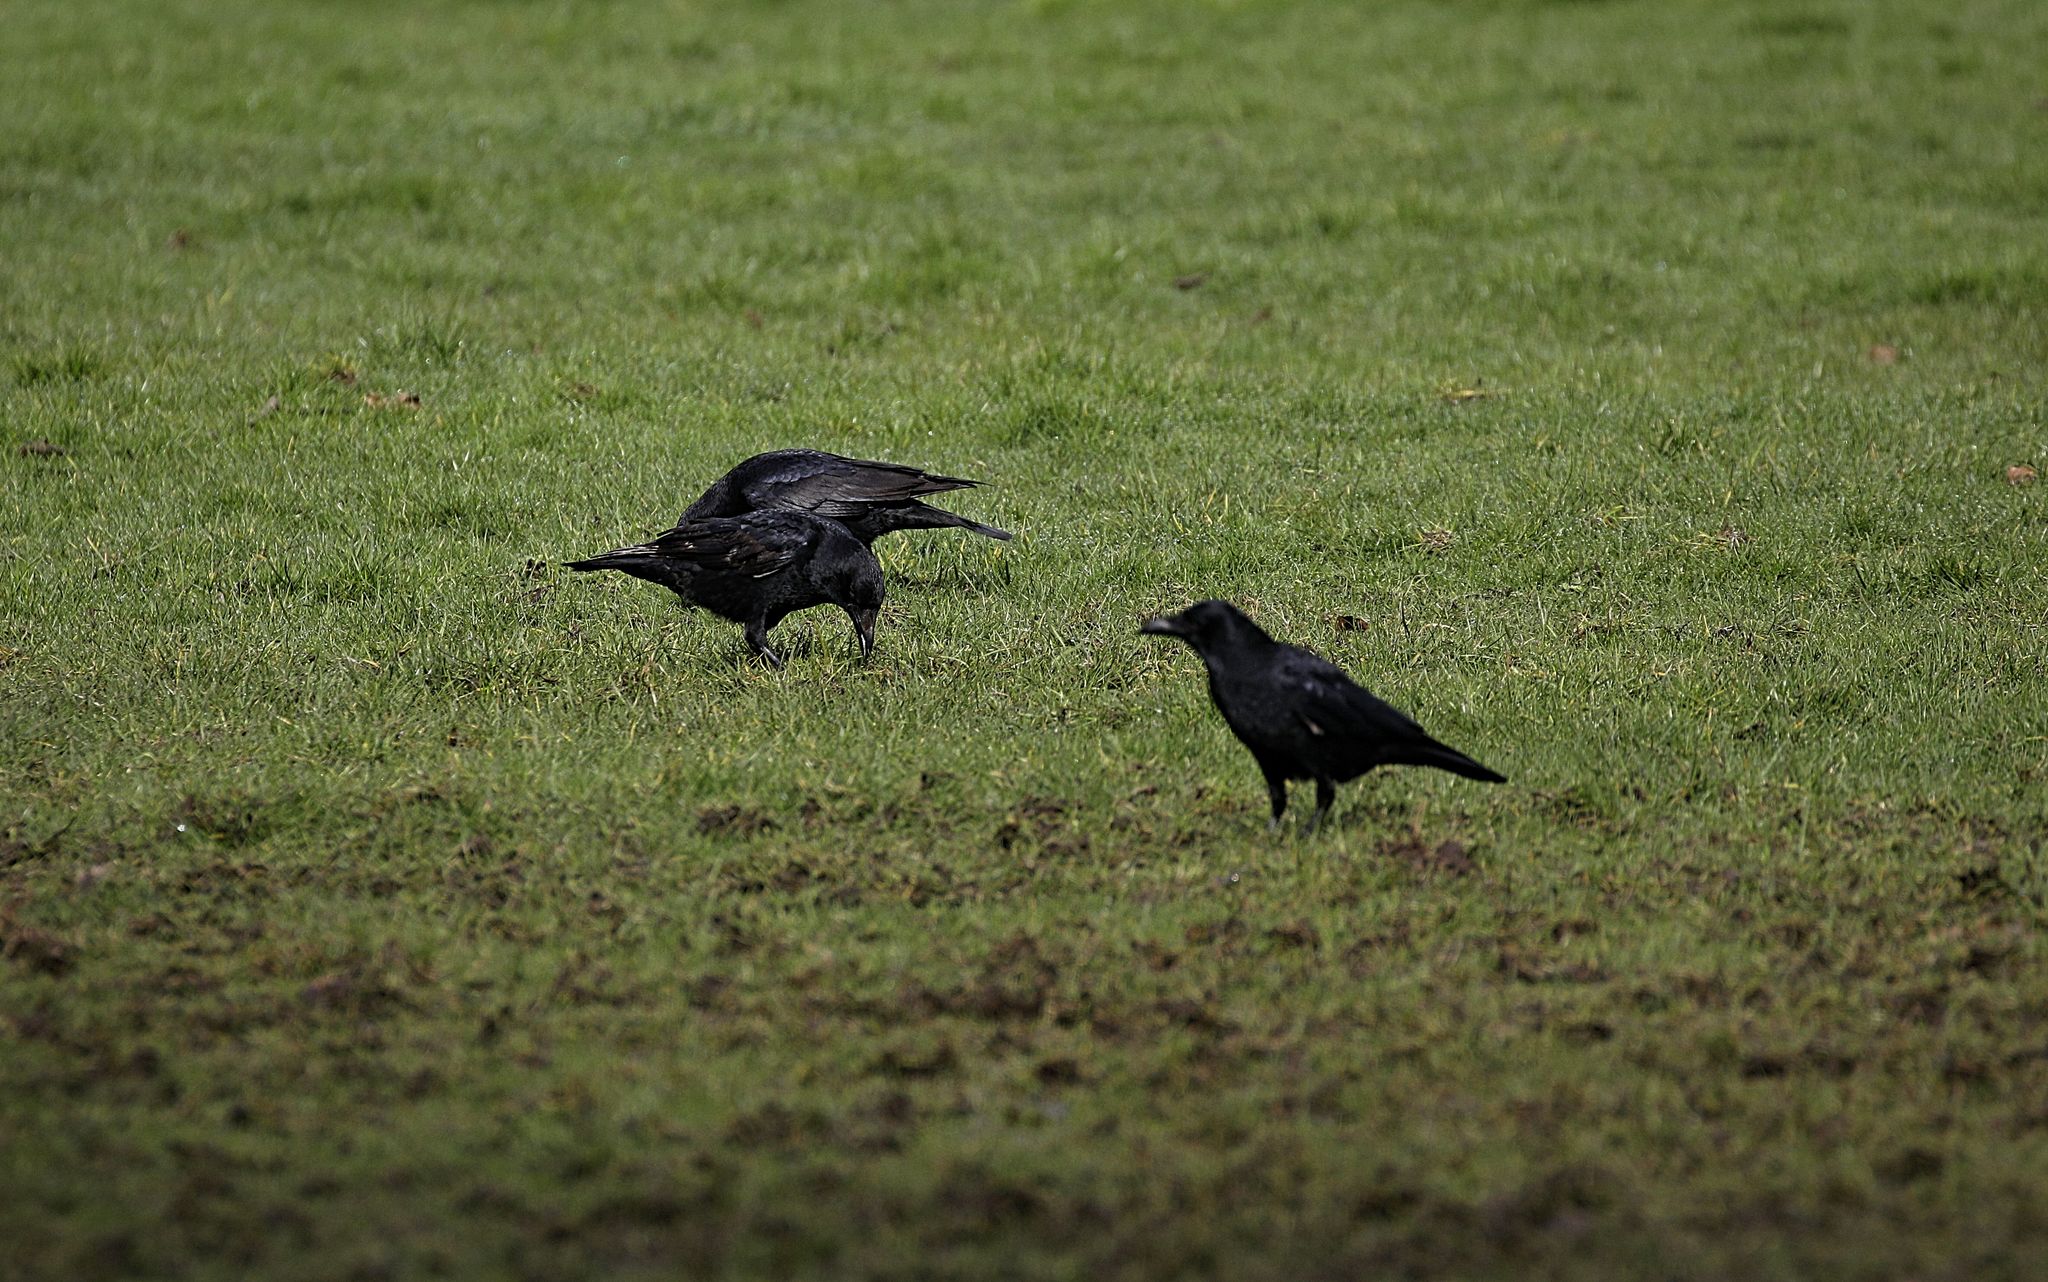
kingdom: Animalia
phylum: Chordata
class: Aves
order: Passeriformes
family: Corvidae
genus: Corvus
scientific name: Corvus corax
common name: Common raven
